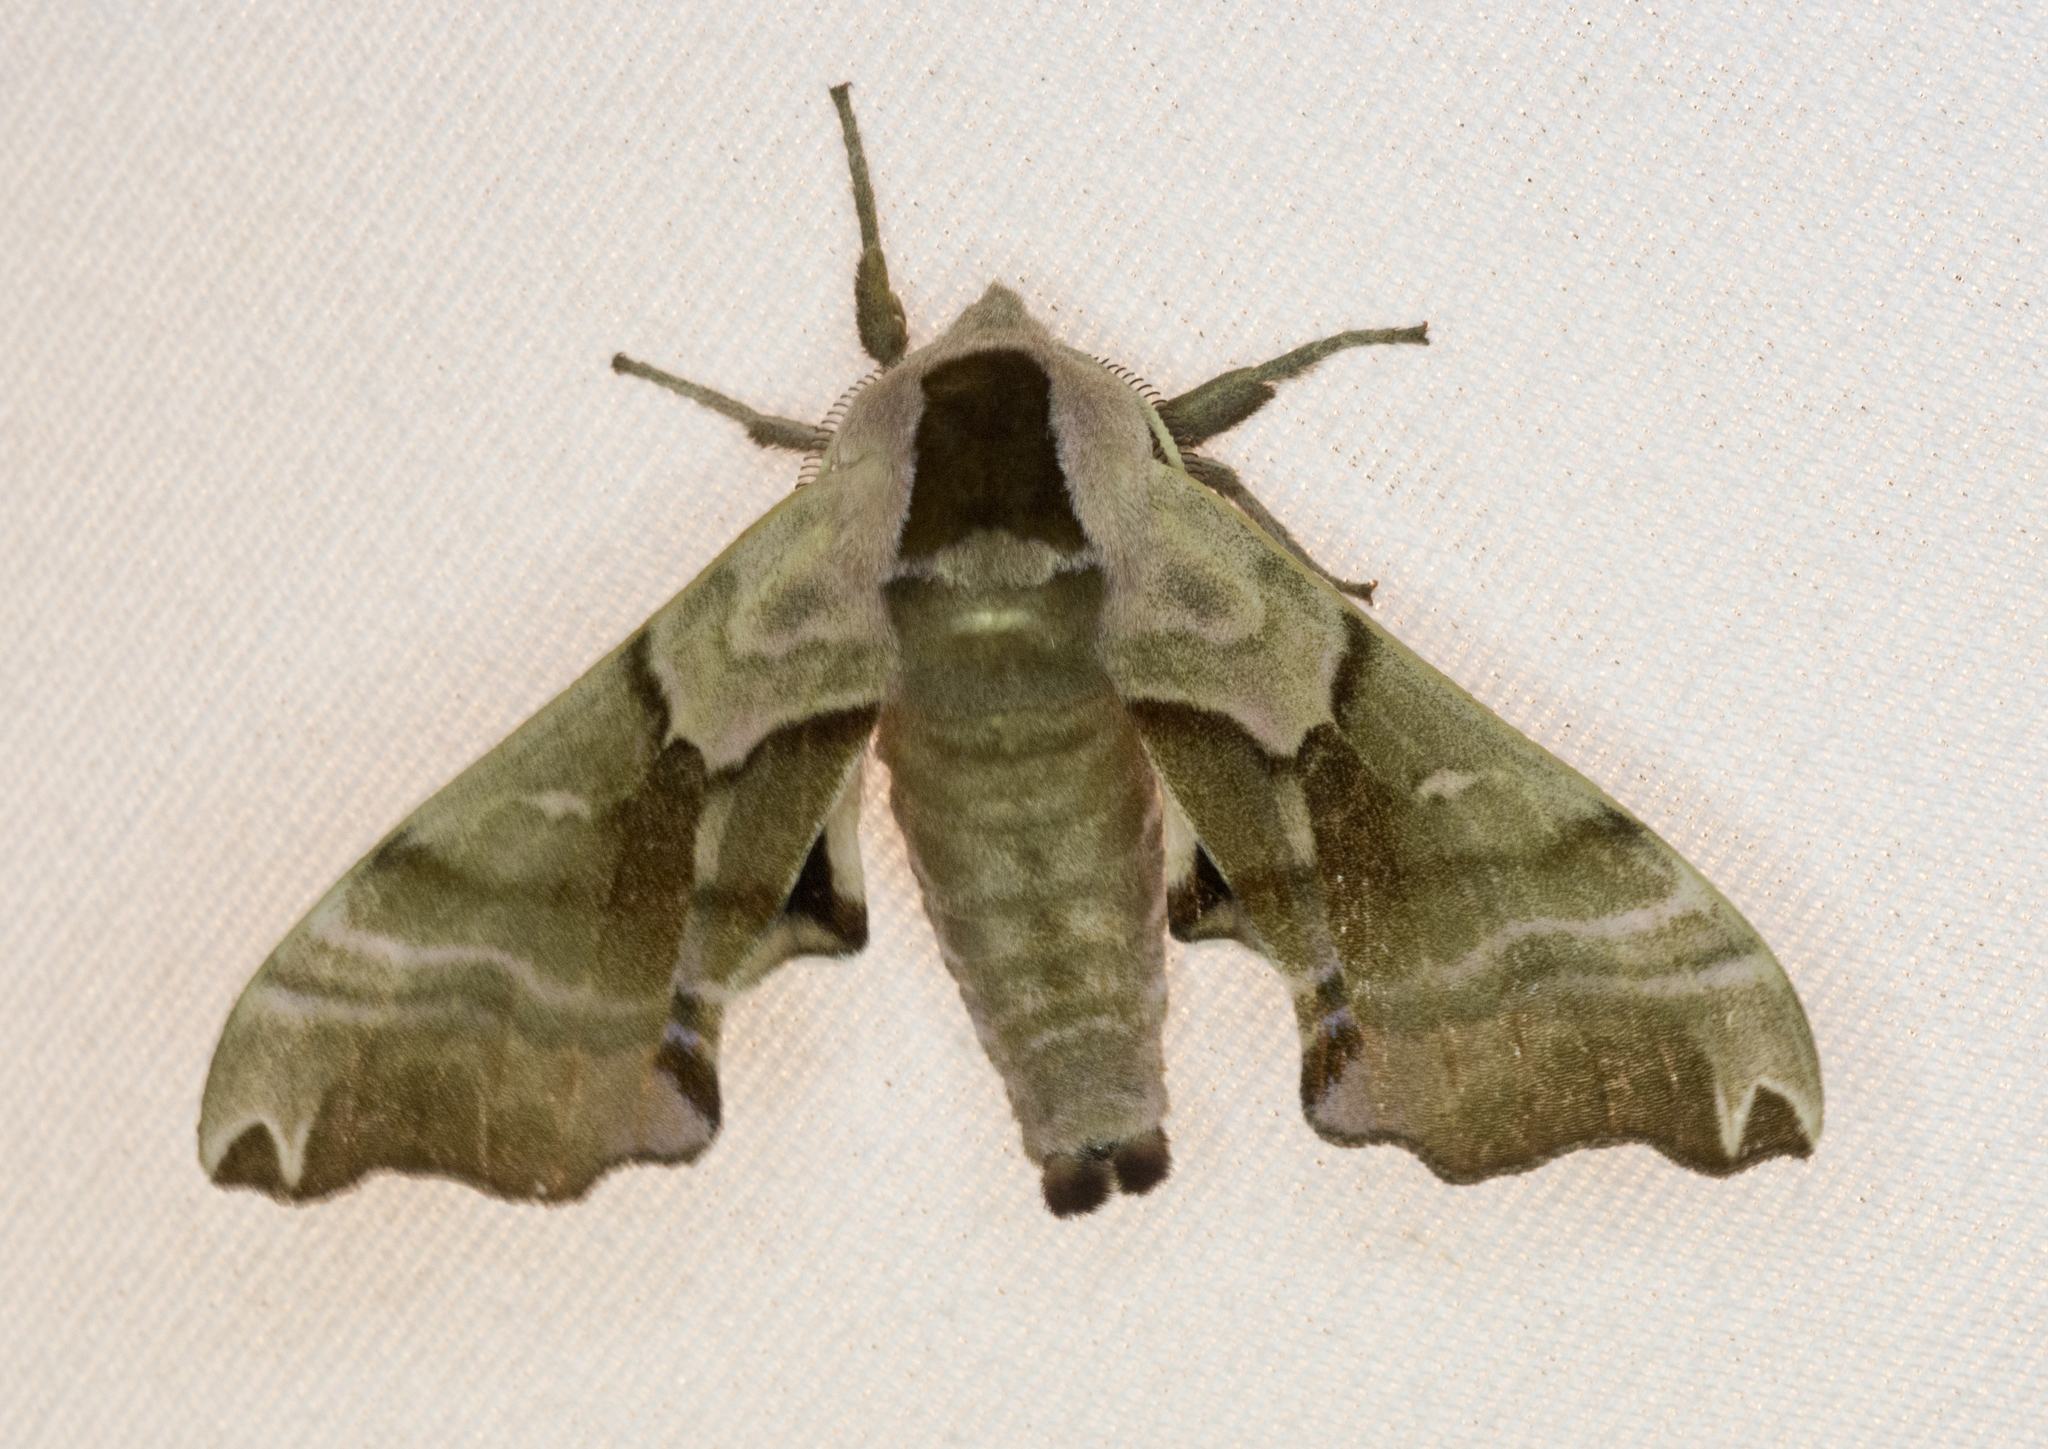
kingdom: Animalia
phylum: Arthropoda
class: Insecta
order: Lepidoptera
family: Sphingidae
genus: Smerinthus
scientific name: Smerinthus jamaicensis
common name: Twin spotted sphinx
